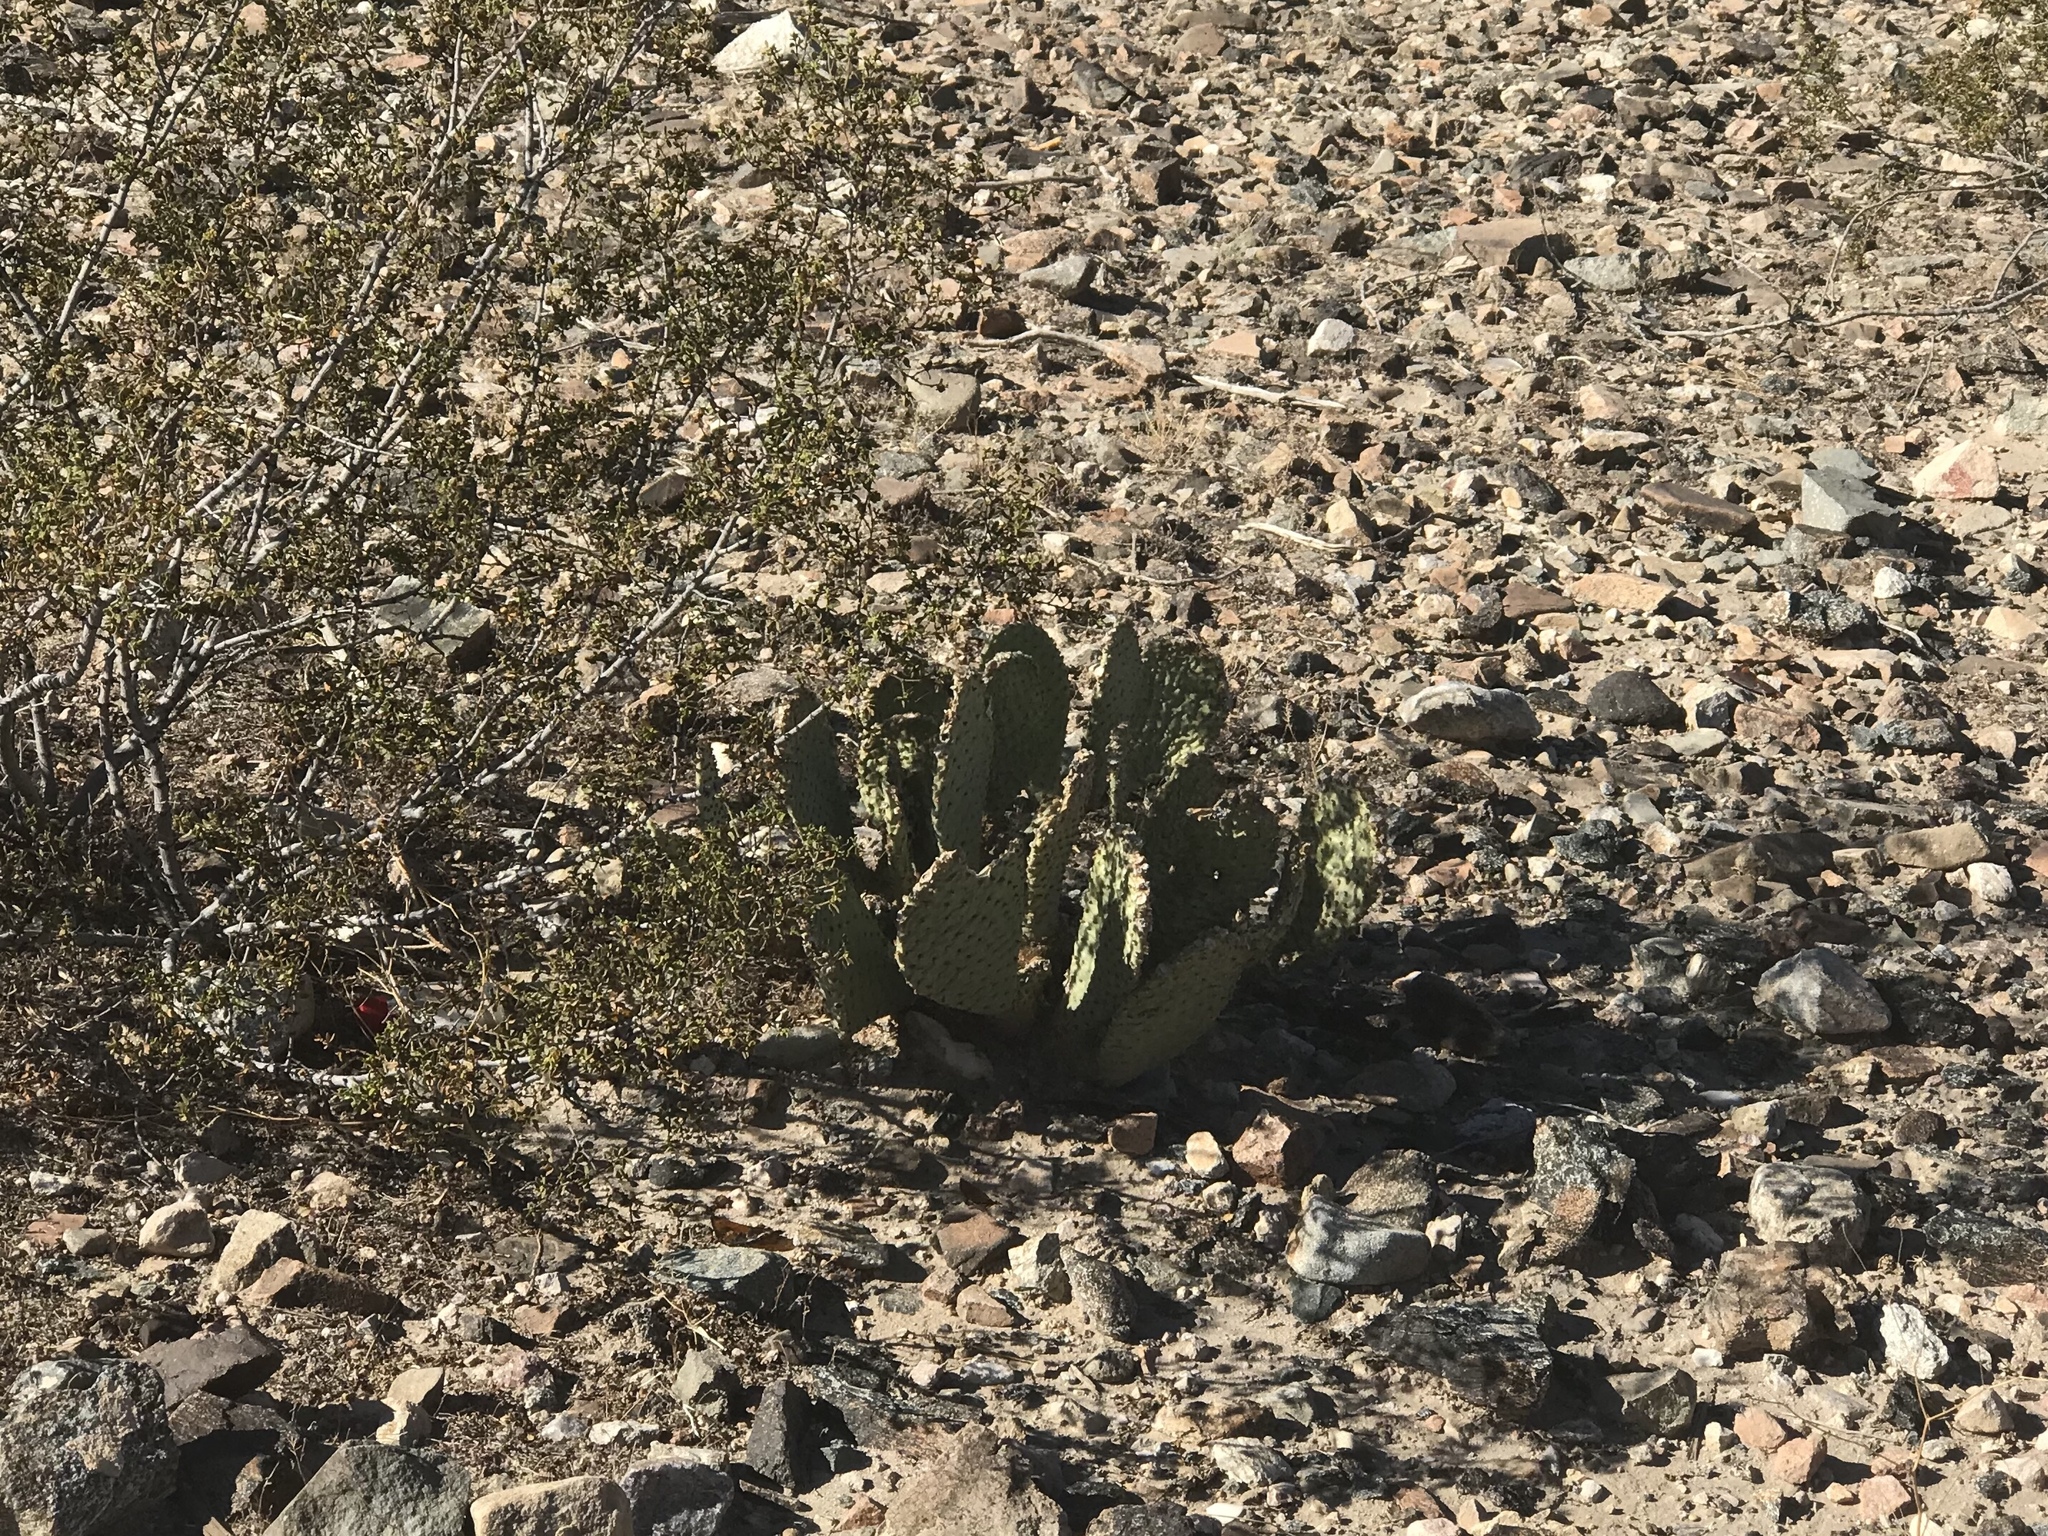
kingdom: Plantae
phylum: Tracheophyta
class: Magnoliopsida
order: Caryophyllales
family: Cactaceae
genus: Opuntia
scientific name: Opuntia basilaris
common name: Beavertail prickly-pear
